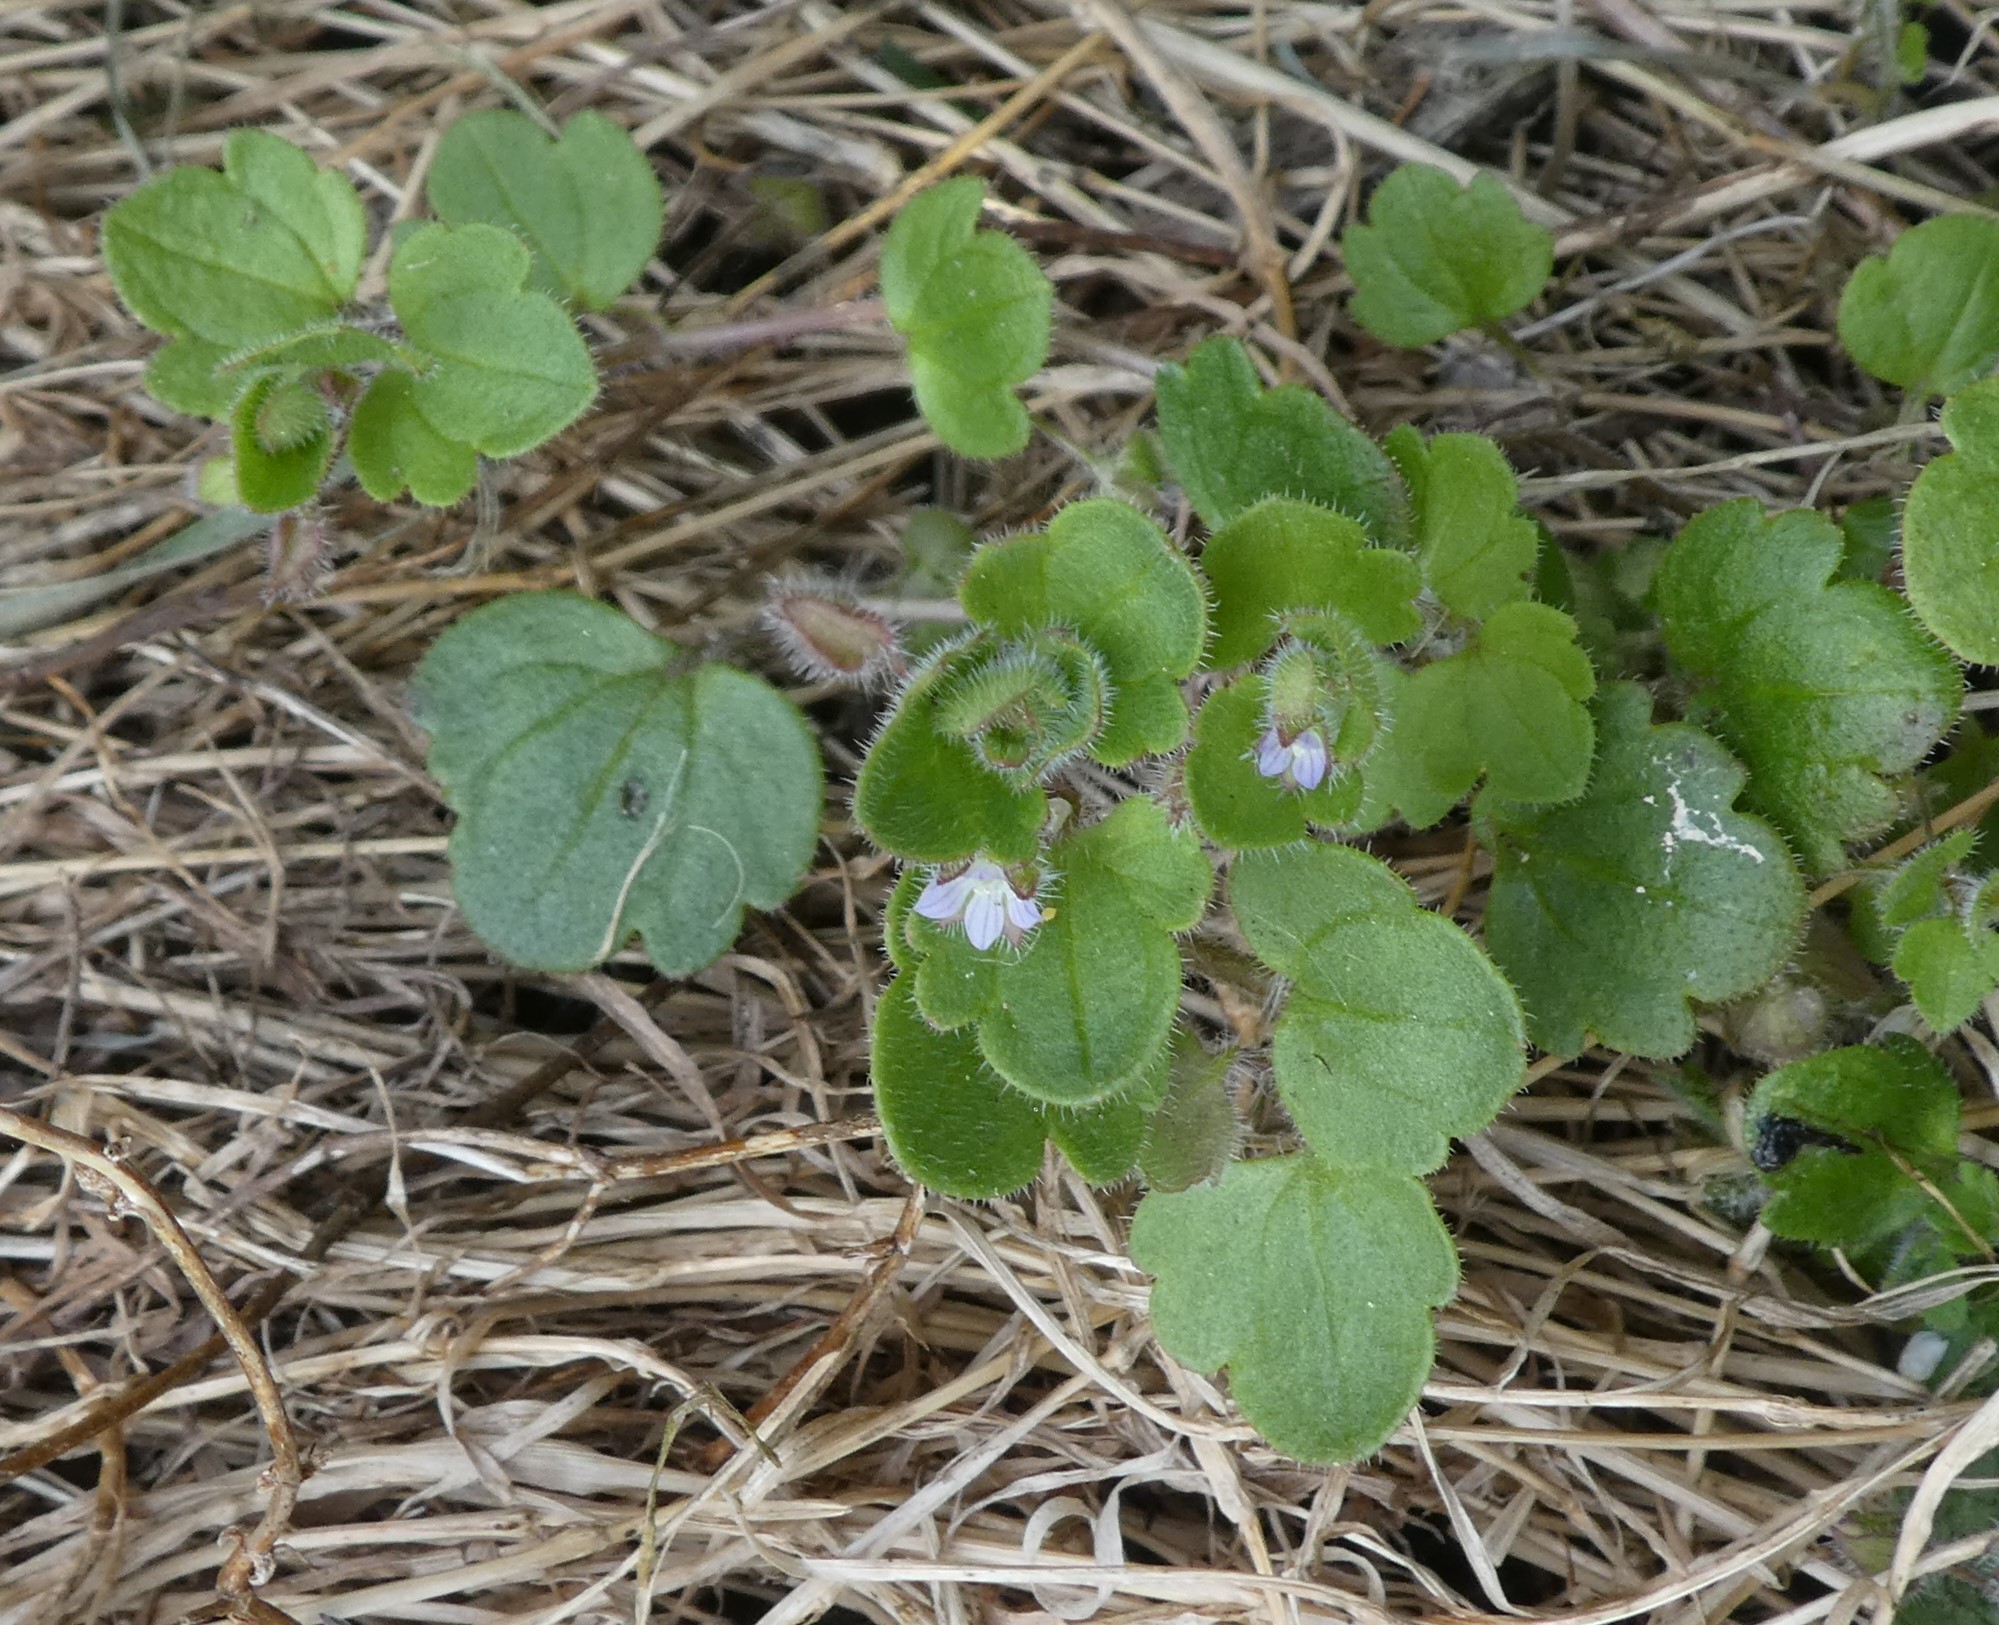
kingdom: Plantae
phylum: Tracheophyta
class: Magnoliopsida
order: Lamiales
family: Plantaginaceae
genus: Veronica
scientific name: Veronica sublobata
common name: False ivy-leaved speedwell
